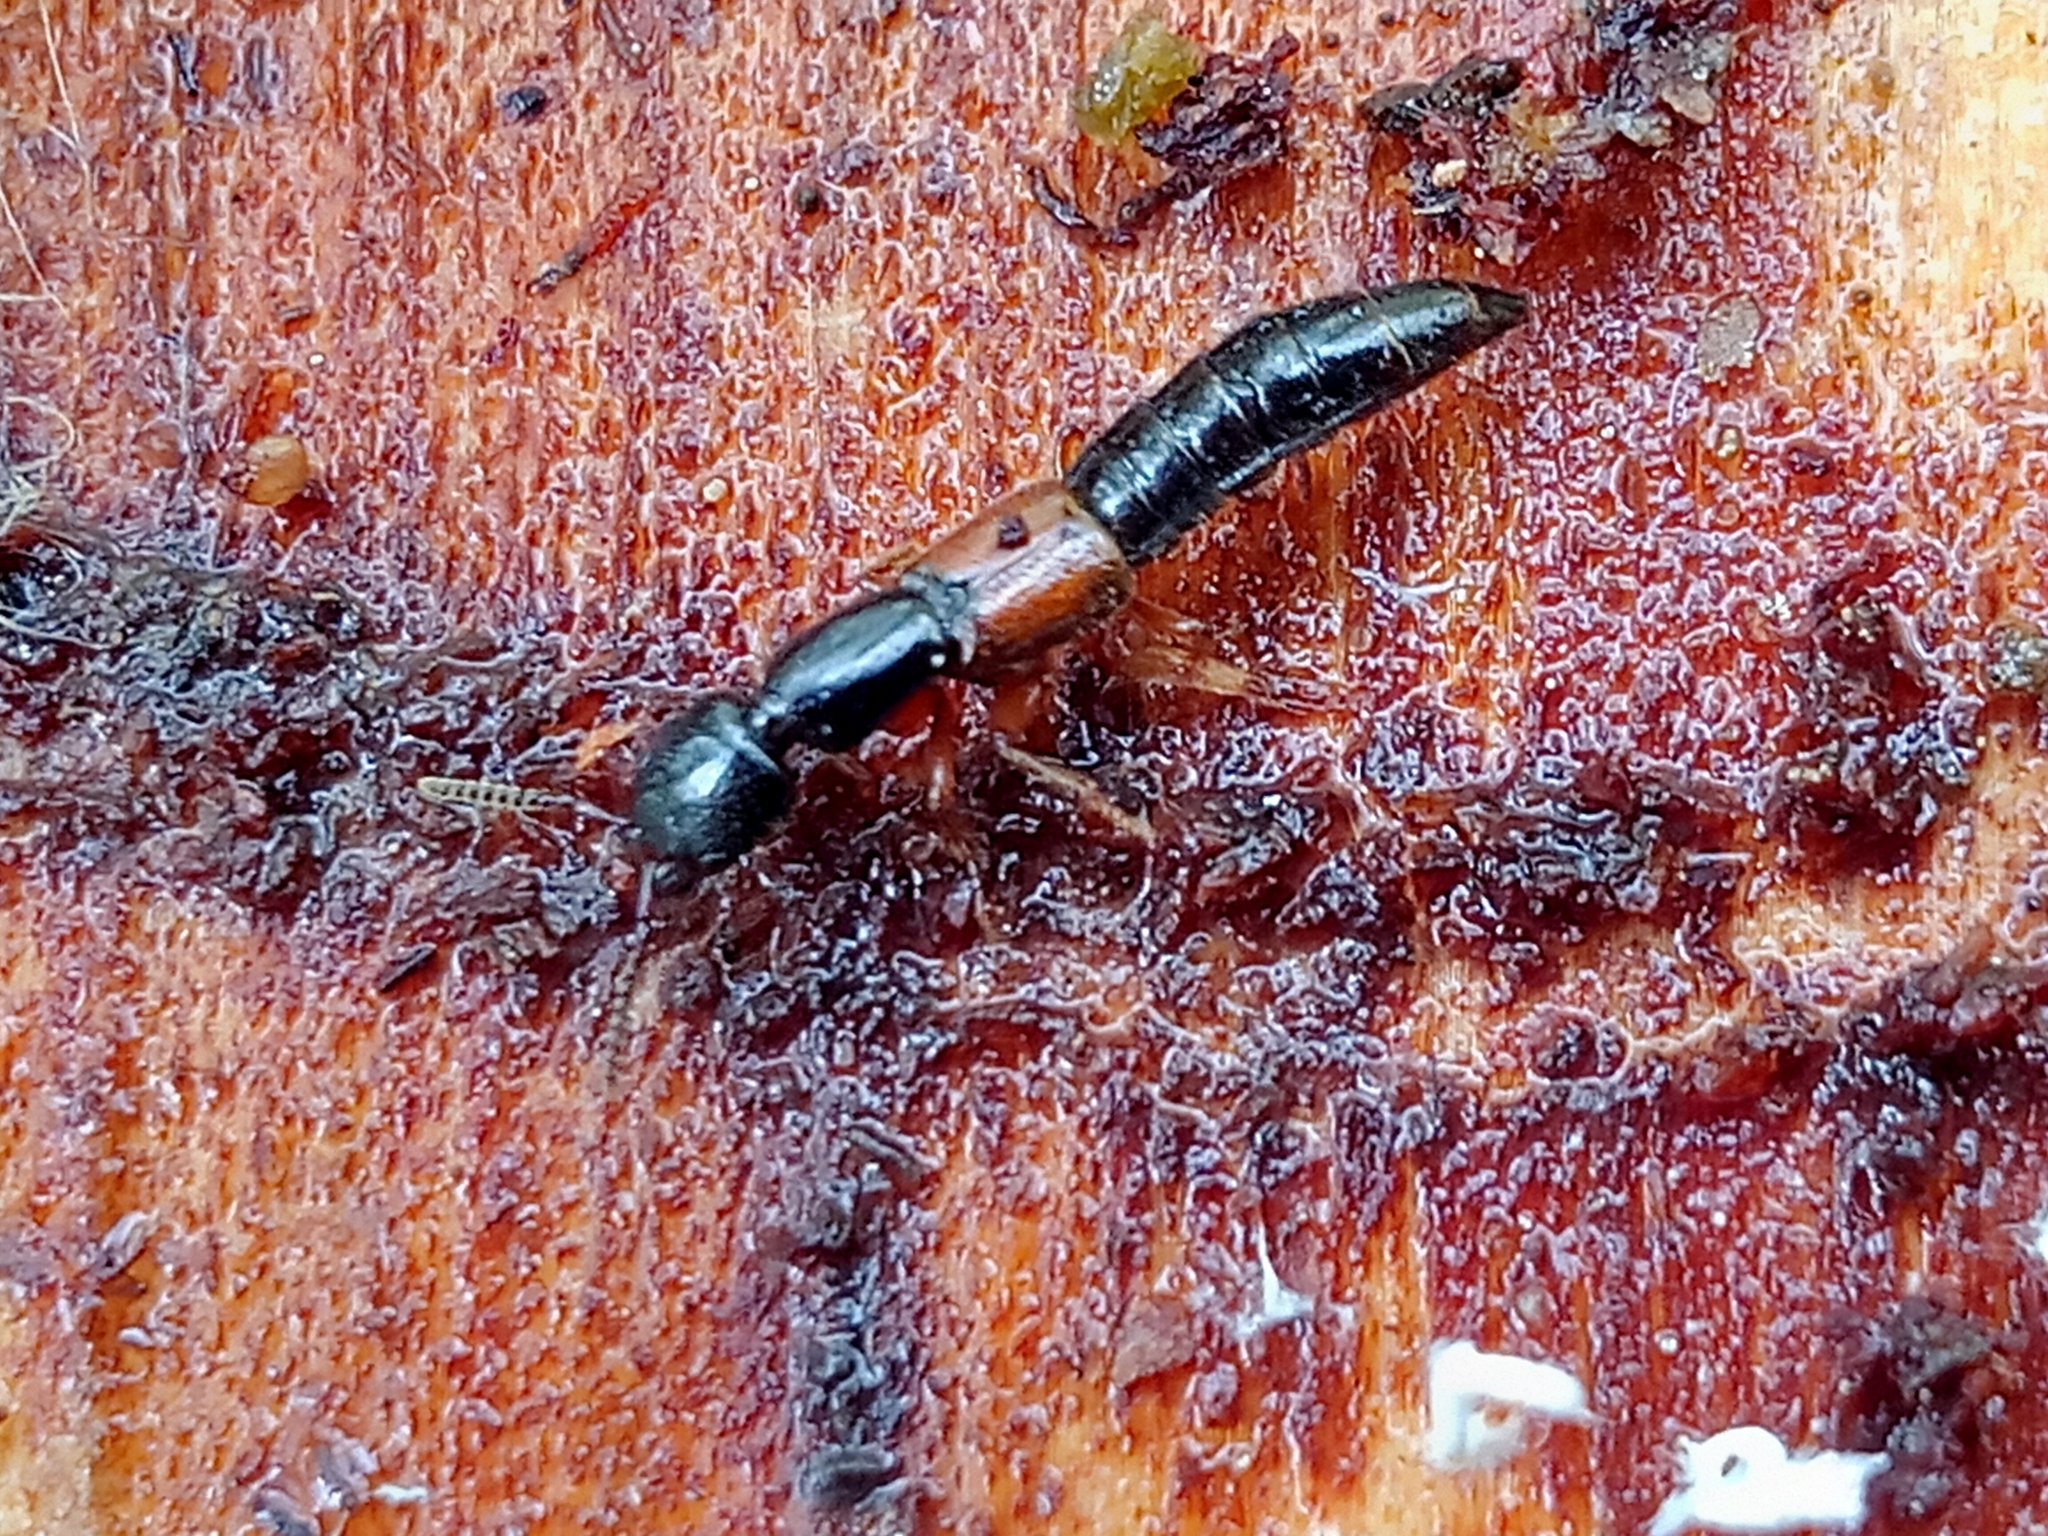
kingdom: Animalia
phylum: Arthropoda
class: Insecta
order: Coleoptera
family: Staphylinidae
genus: Nudobius
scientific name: Nudobius lentus
